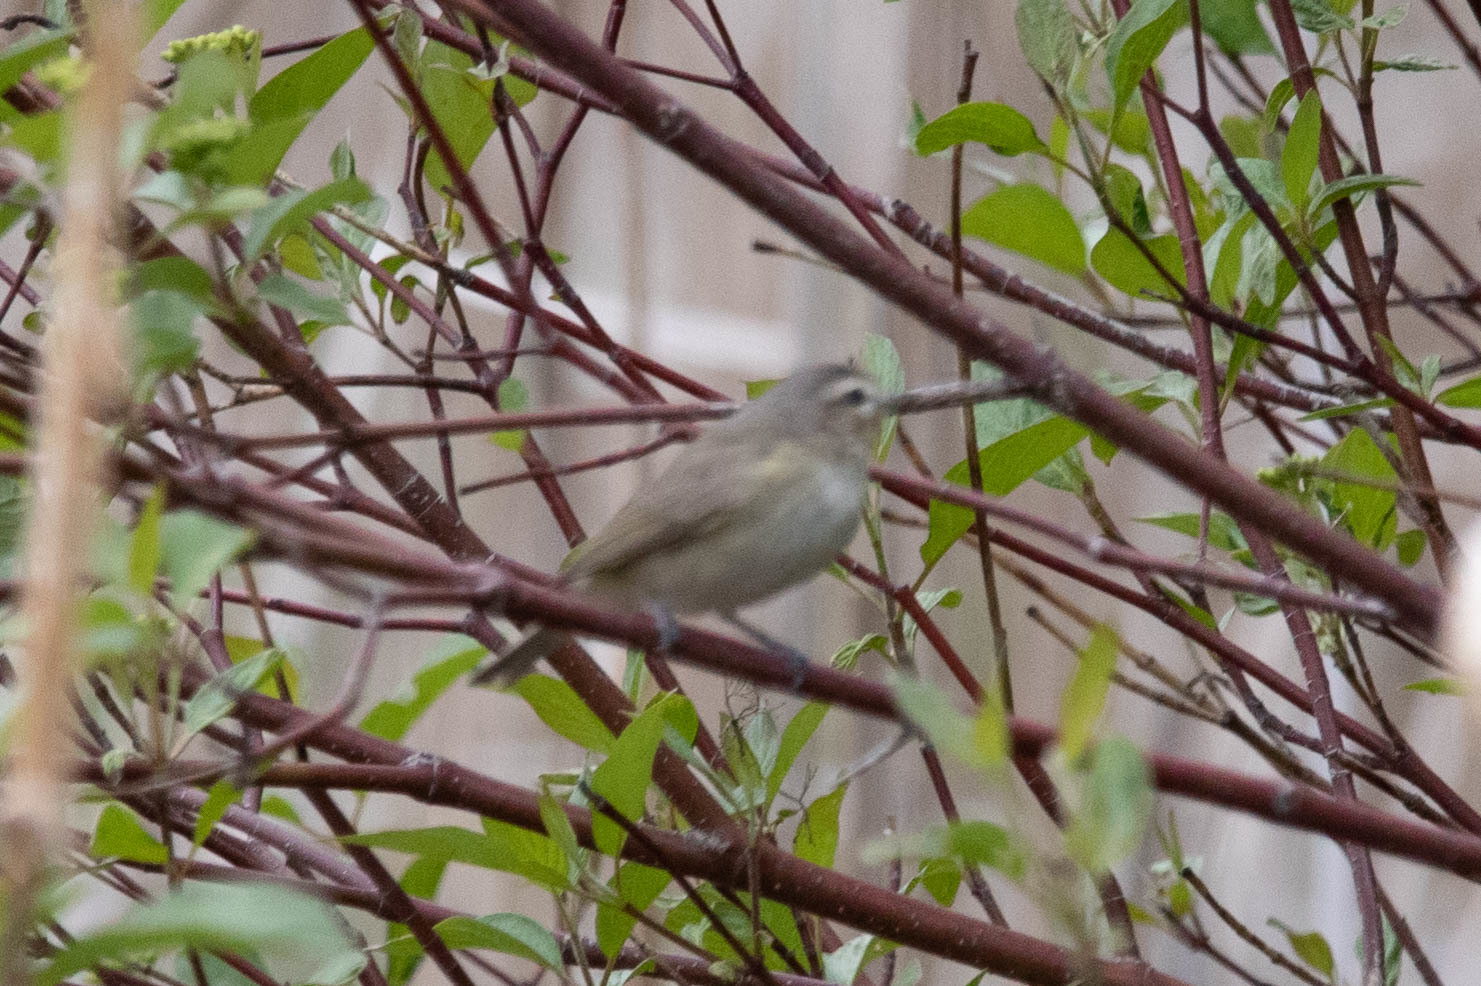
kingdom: Animalia
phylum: Chordata
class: Aves
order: Passeriformes
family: Vireonidae
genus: Vireo
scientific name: Vireo gilvus
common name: Warbling vireo
